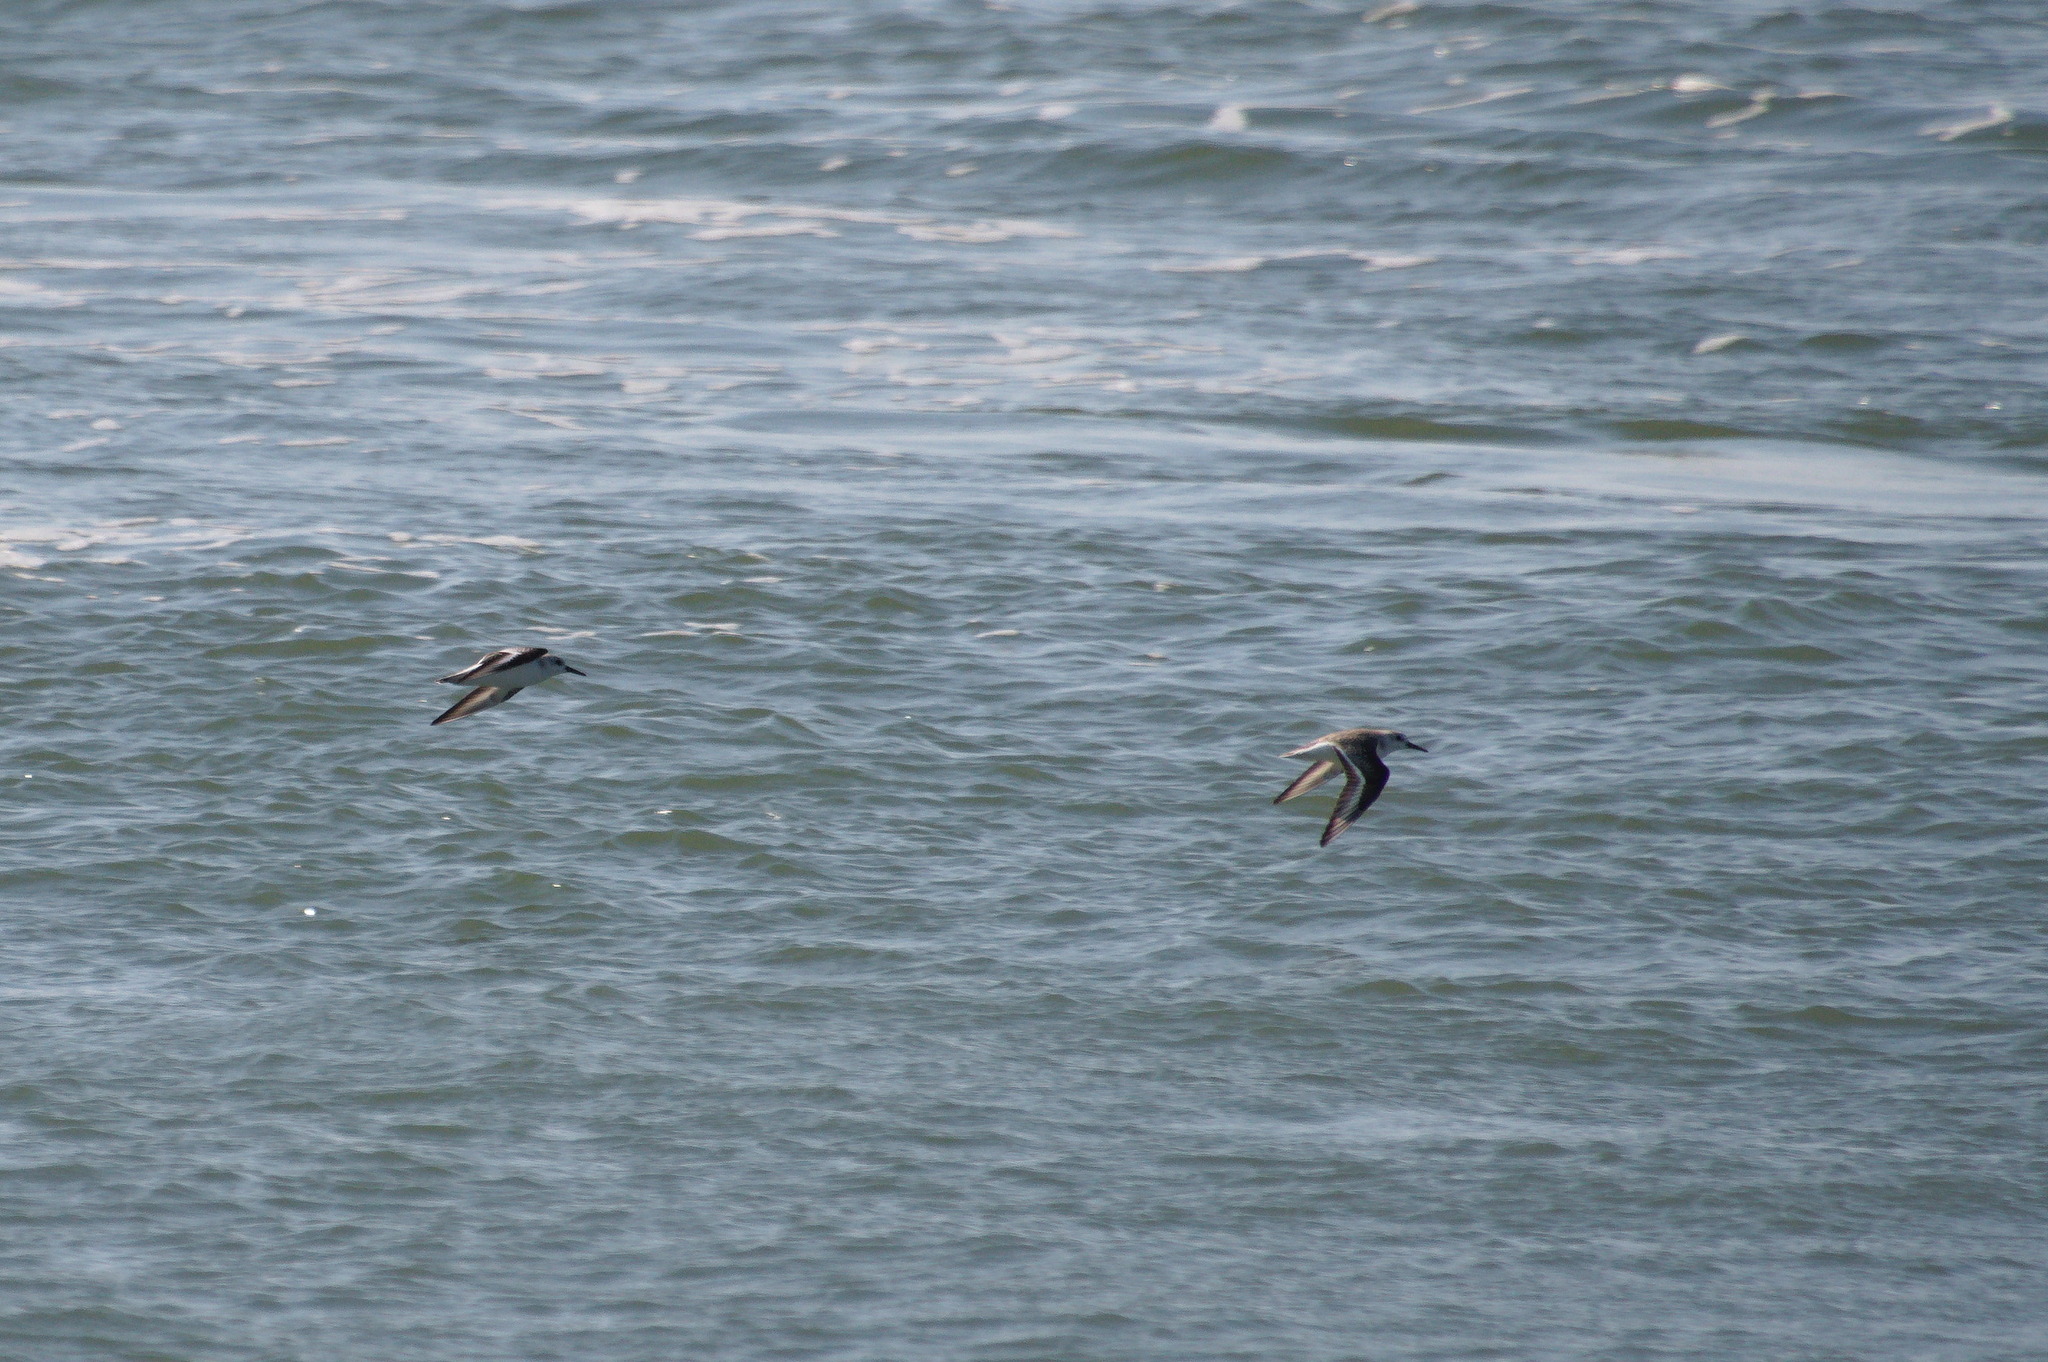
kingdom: Animalia
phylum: Chordata
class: Aves
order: Charadriiformes
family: Scolopacidae
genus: Calidris
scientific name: Calidris alba
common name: Sanderling
